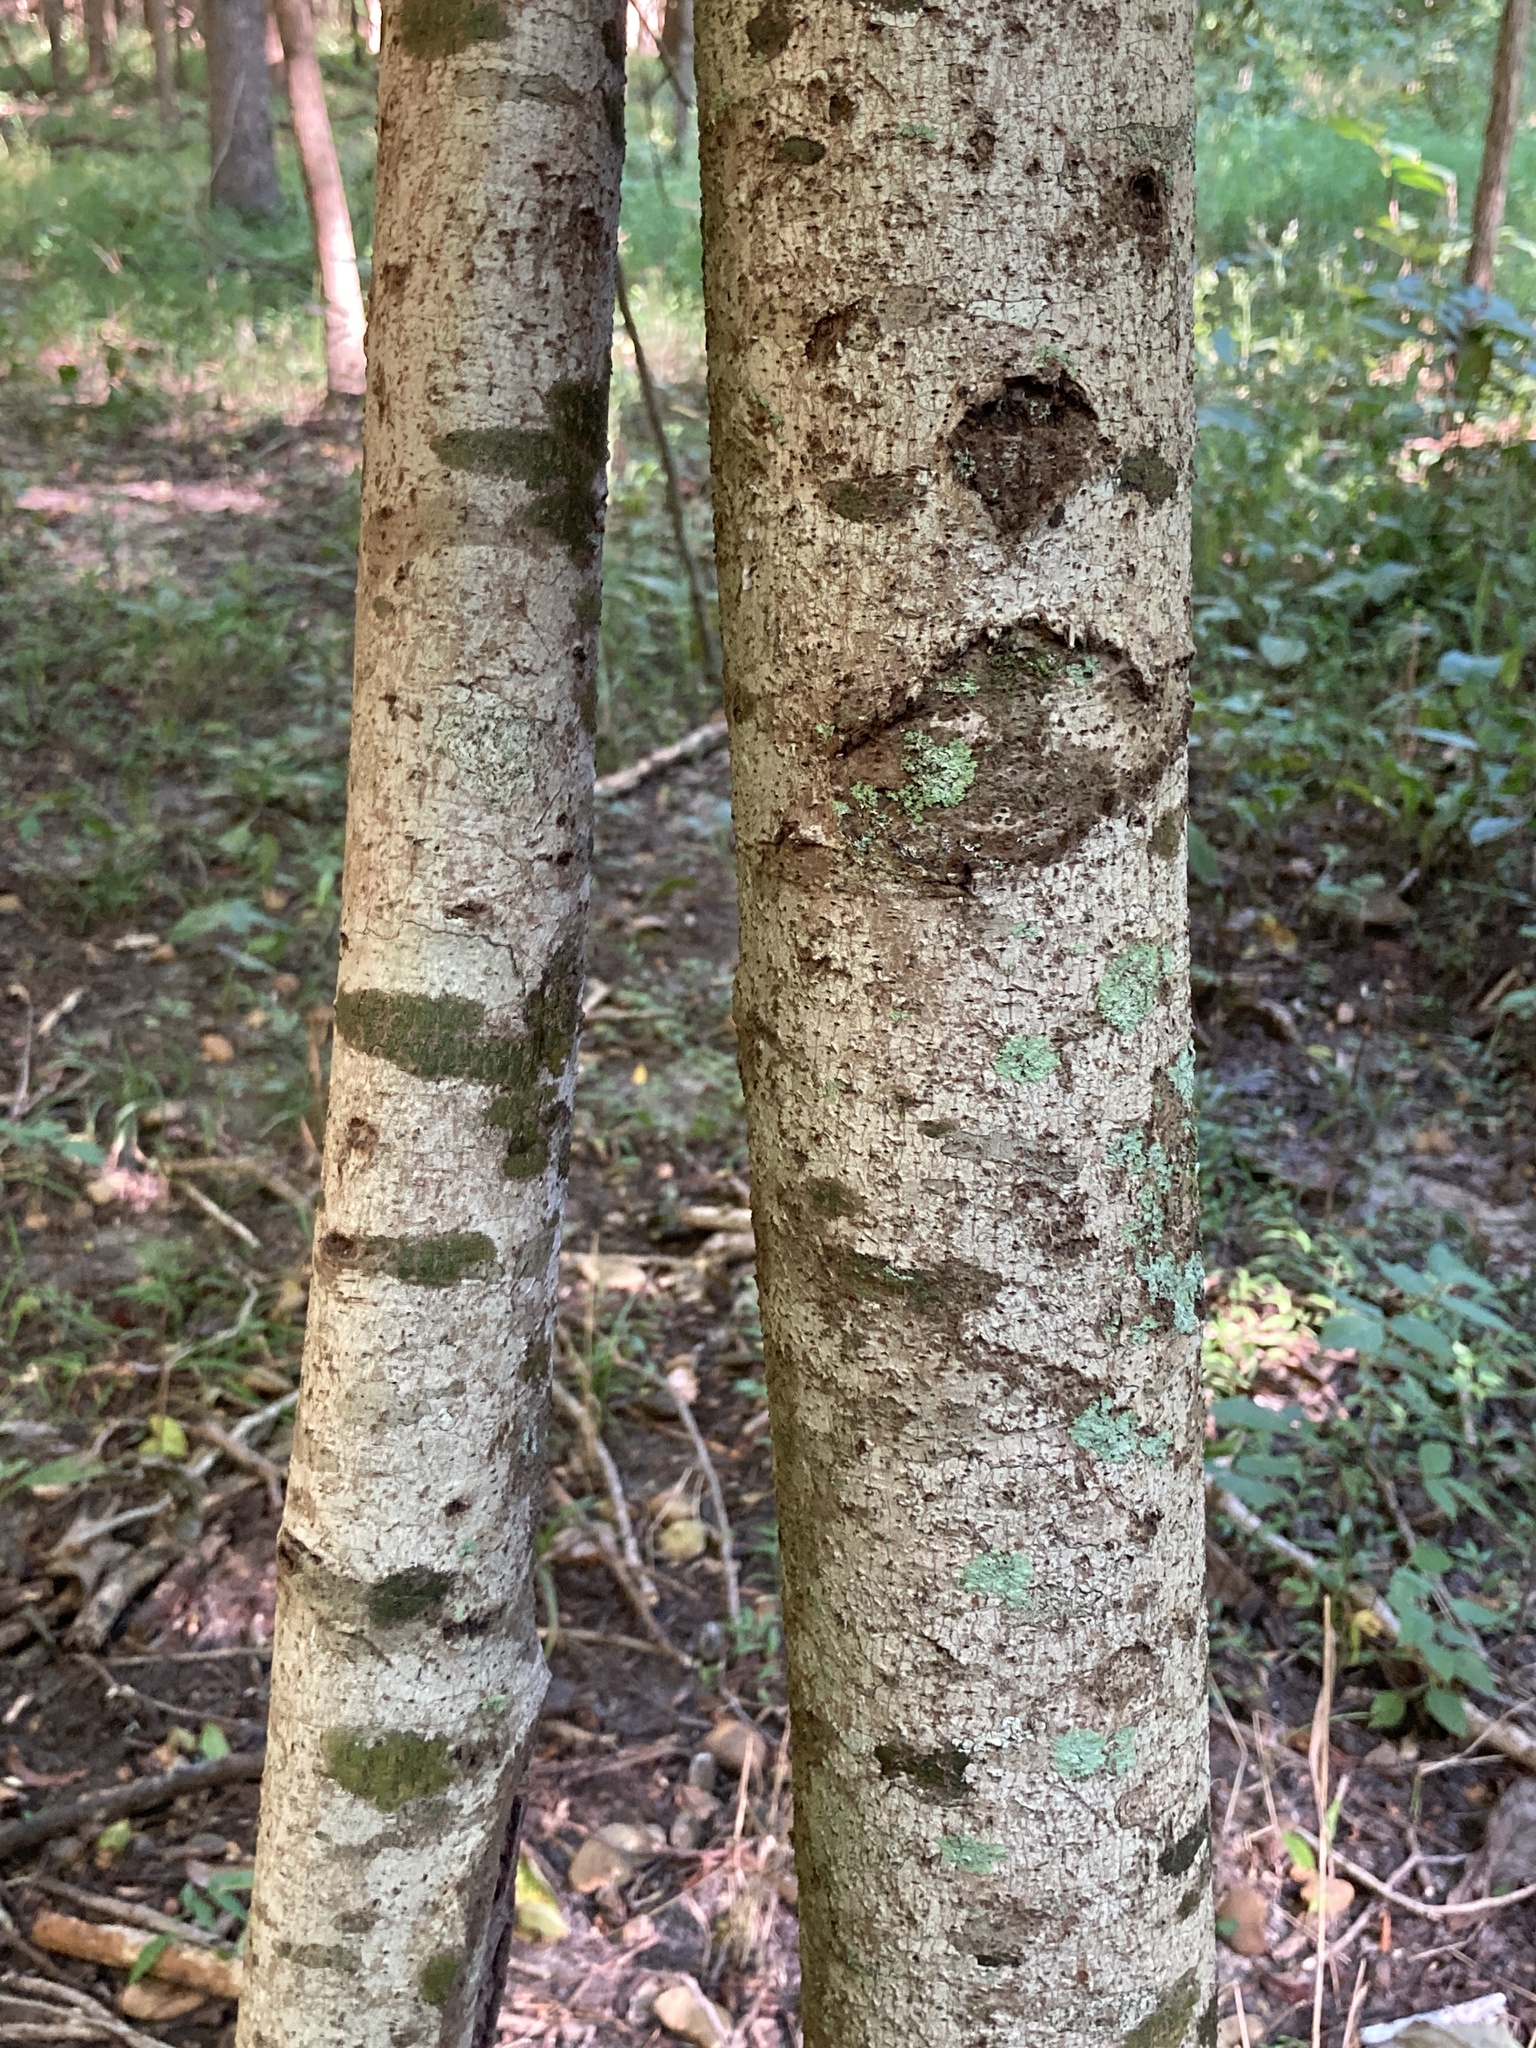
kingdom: Plantae
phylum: Tracheophyta
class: Magnoliopsida
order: Magnoliales
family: Annonaceae
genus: Asimina
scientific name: Asimina triloba
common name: Dog-banana
